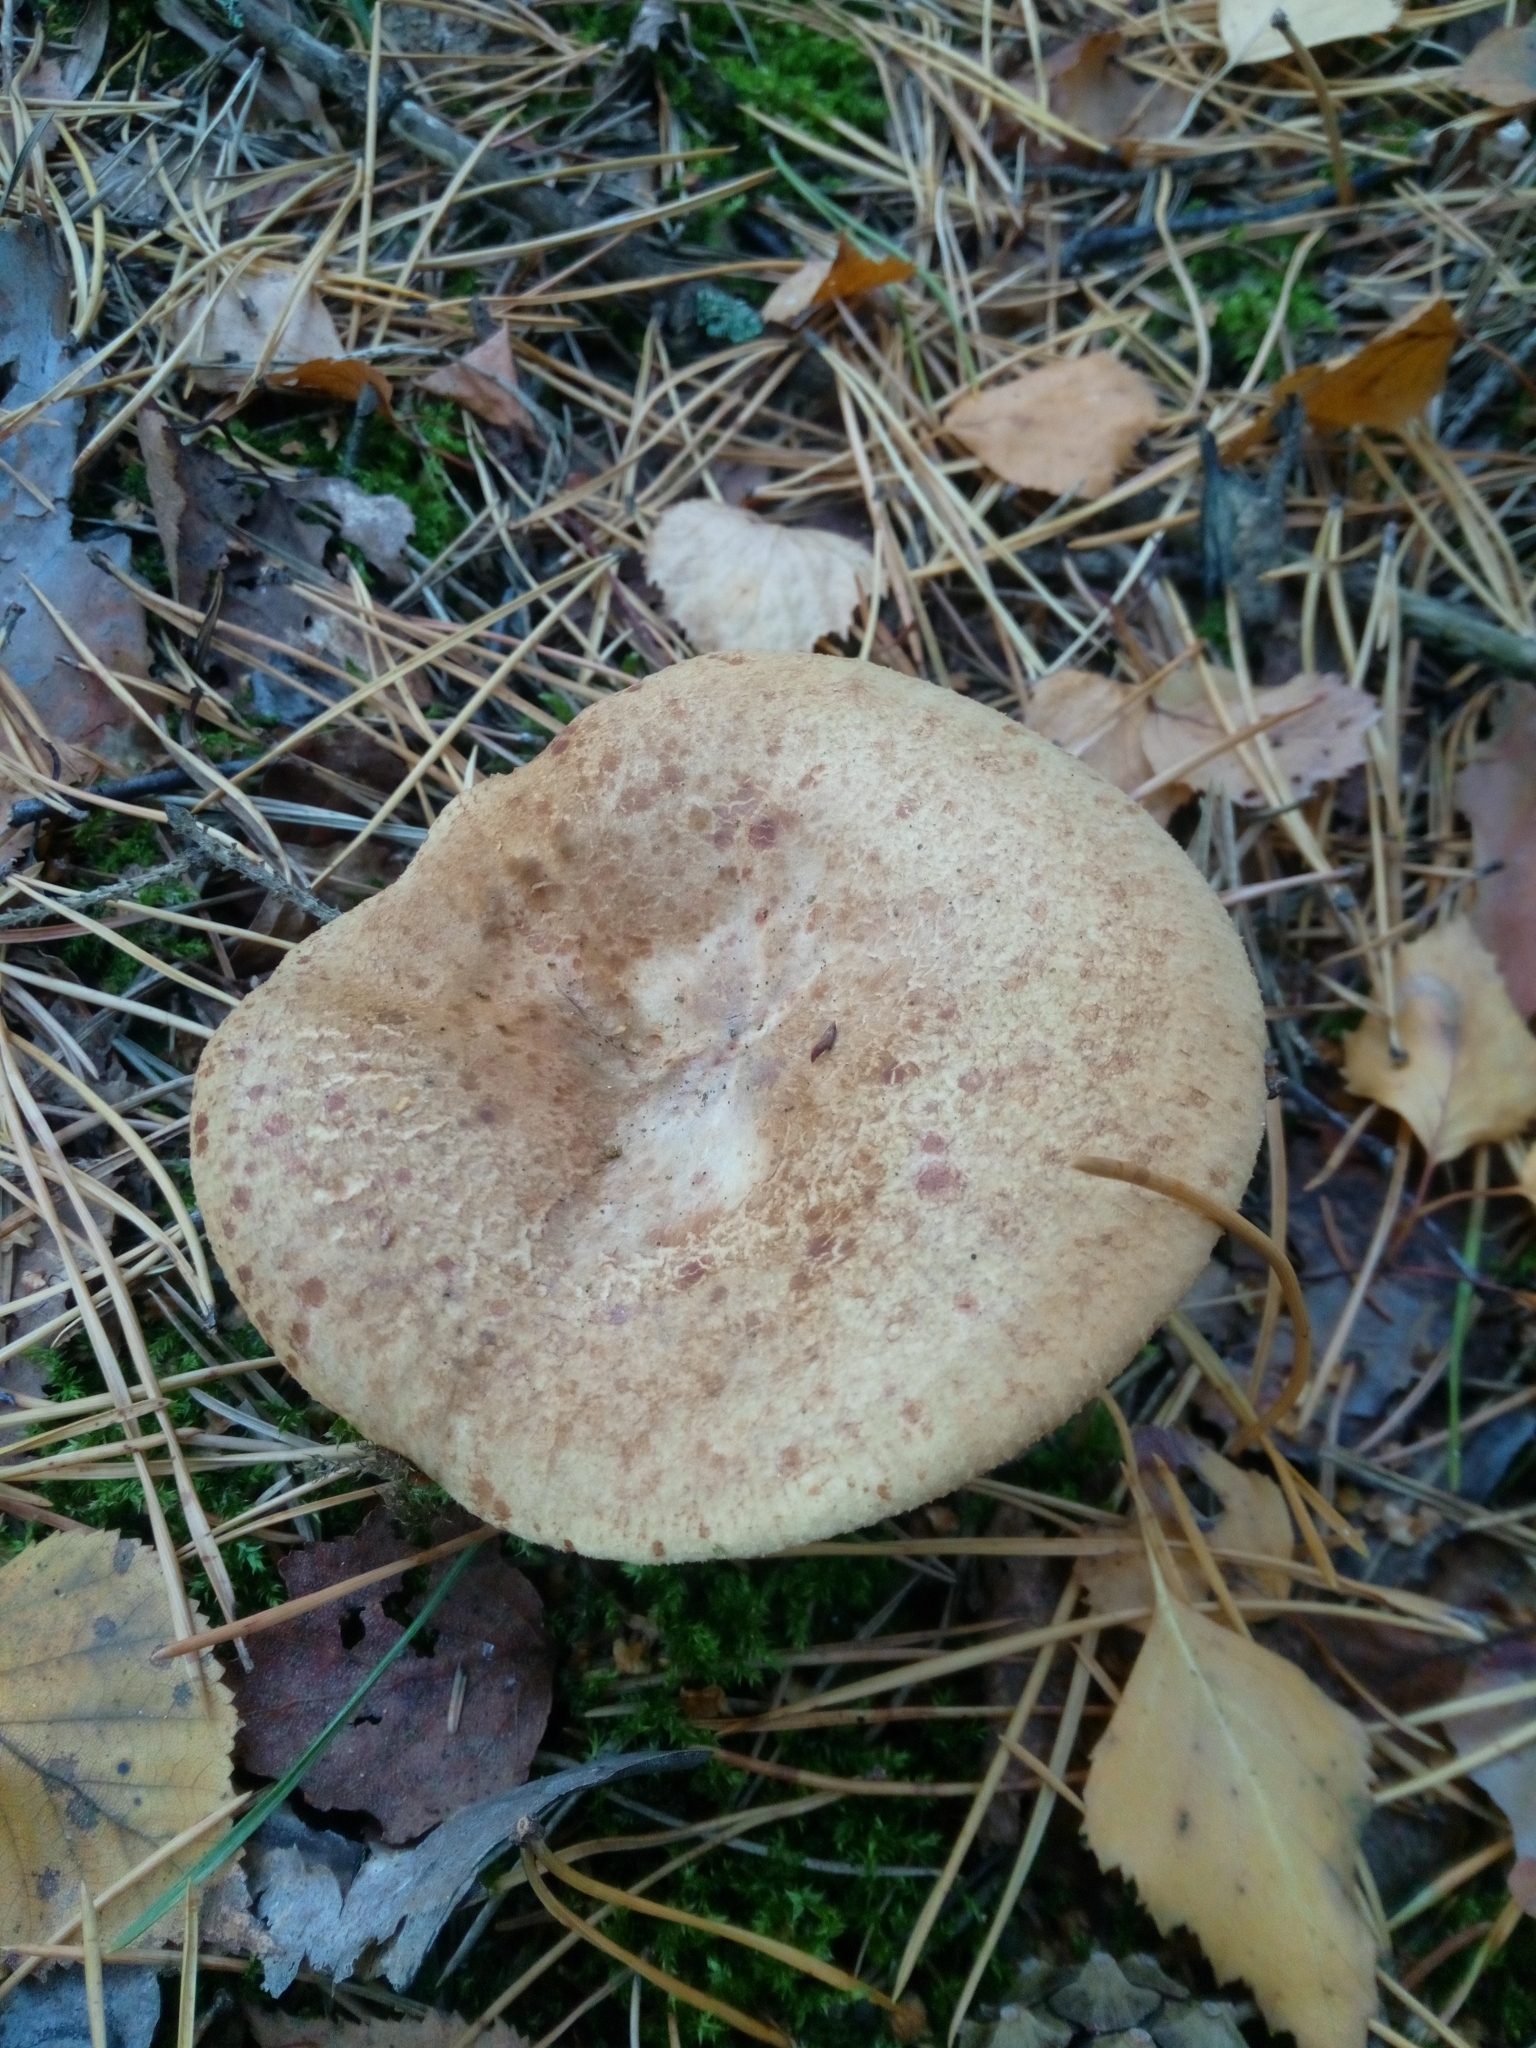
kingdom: Fungi
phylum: Basidiomycota
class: Agaricomycetes
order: Boletales
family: Paxillaceae
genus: Paxillus
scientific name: Paxillus involutus
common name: Brown roll rim
